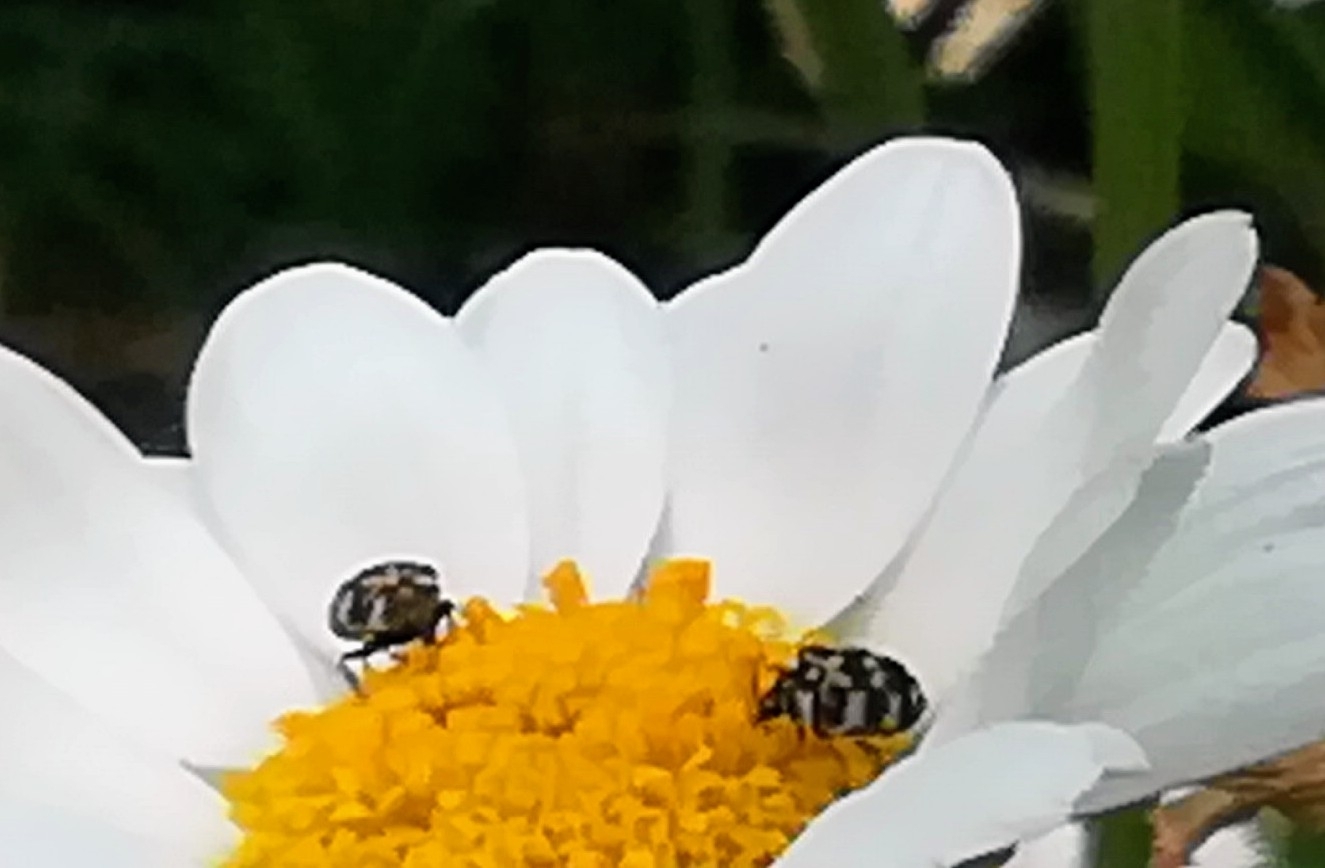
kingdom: Animalia
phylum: Arthropoda
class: Insecta
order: Coleoptera
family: Dermestidae
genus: Anthrenus
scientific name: Anthrenus verbasci
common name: Varied carpet beetle
